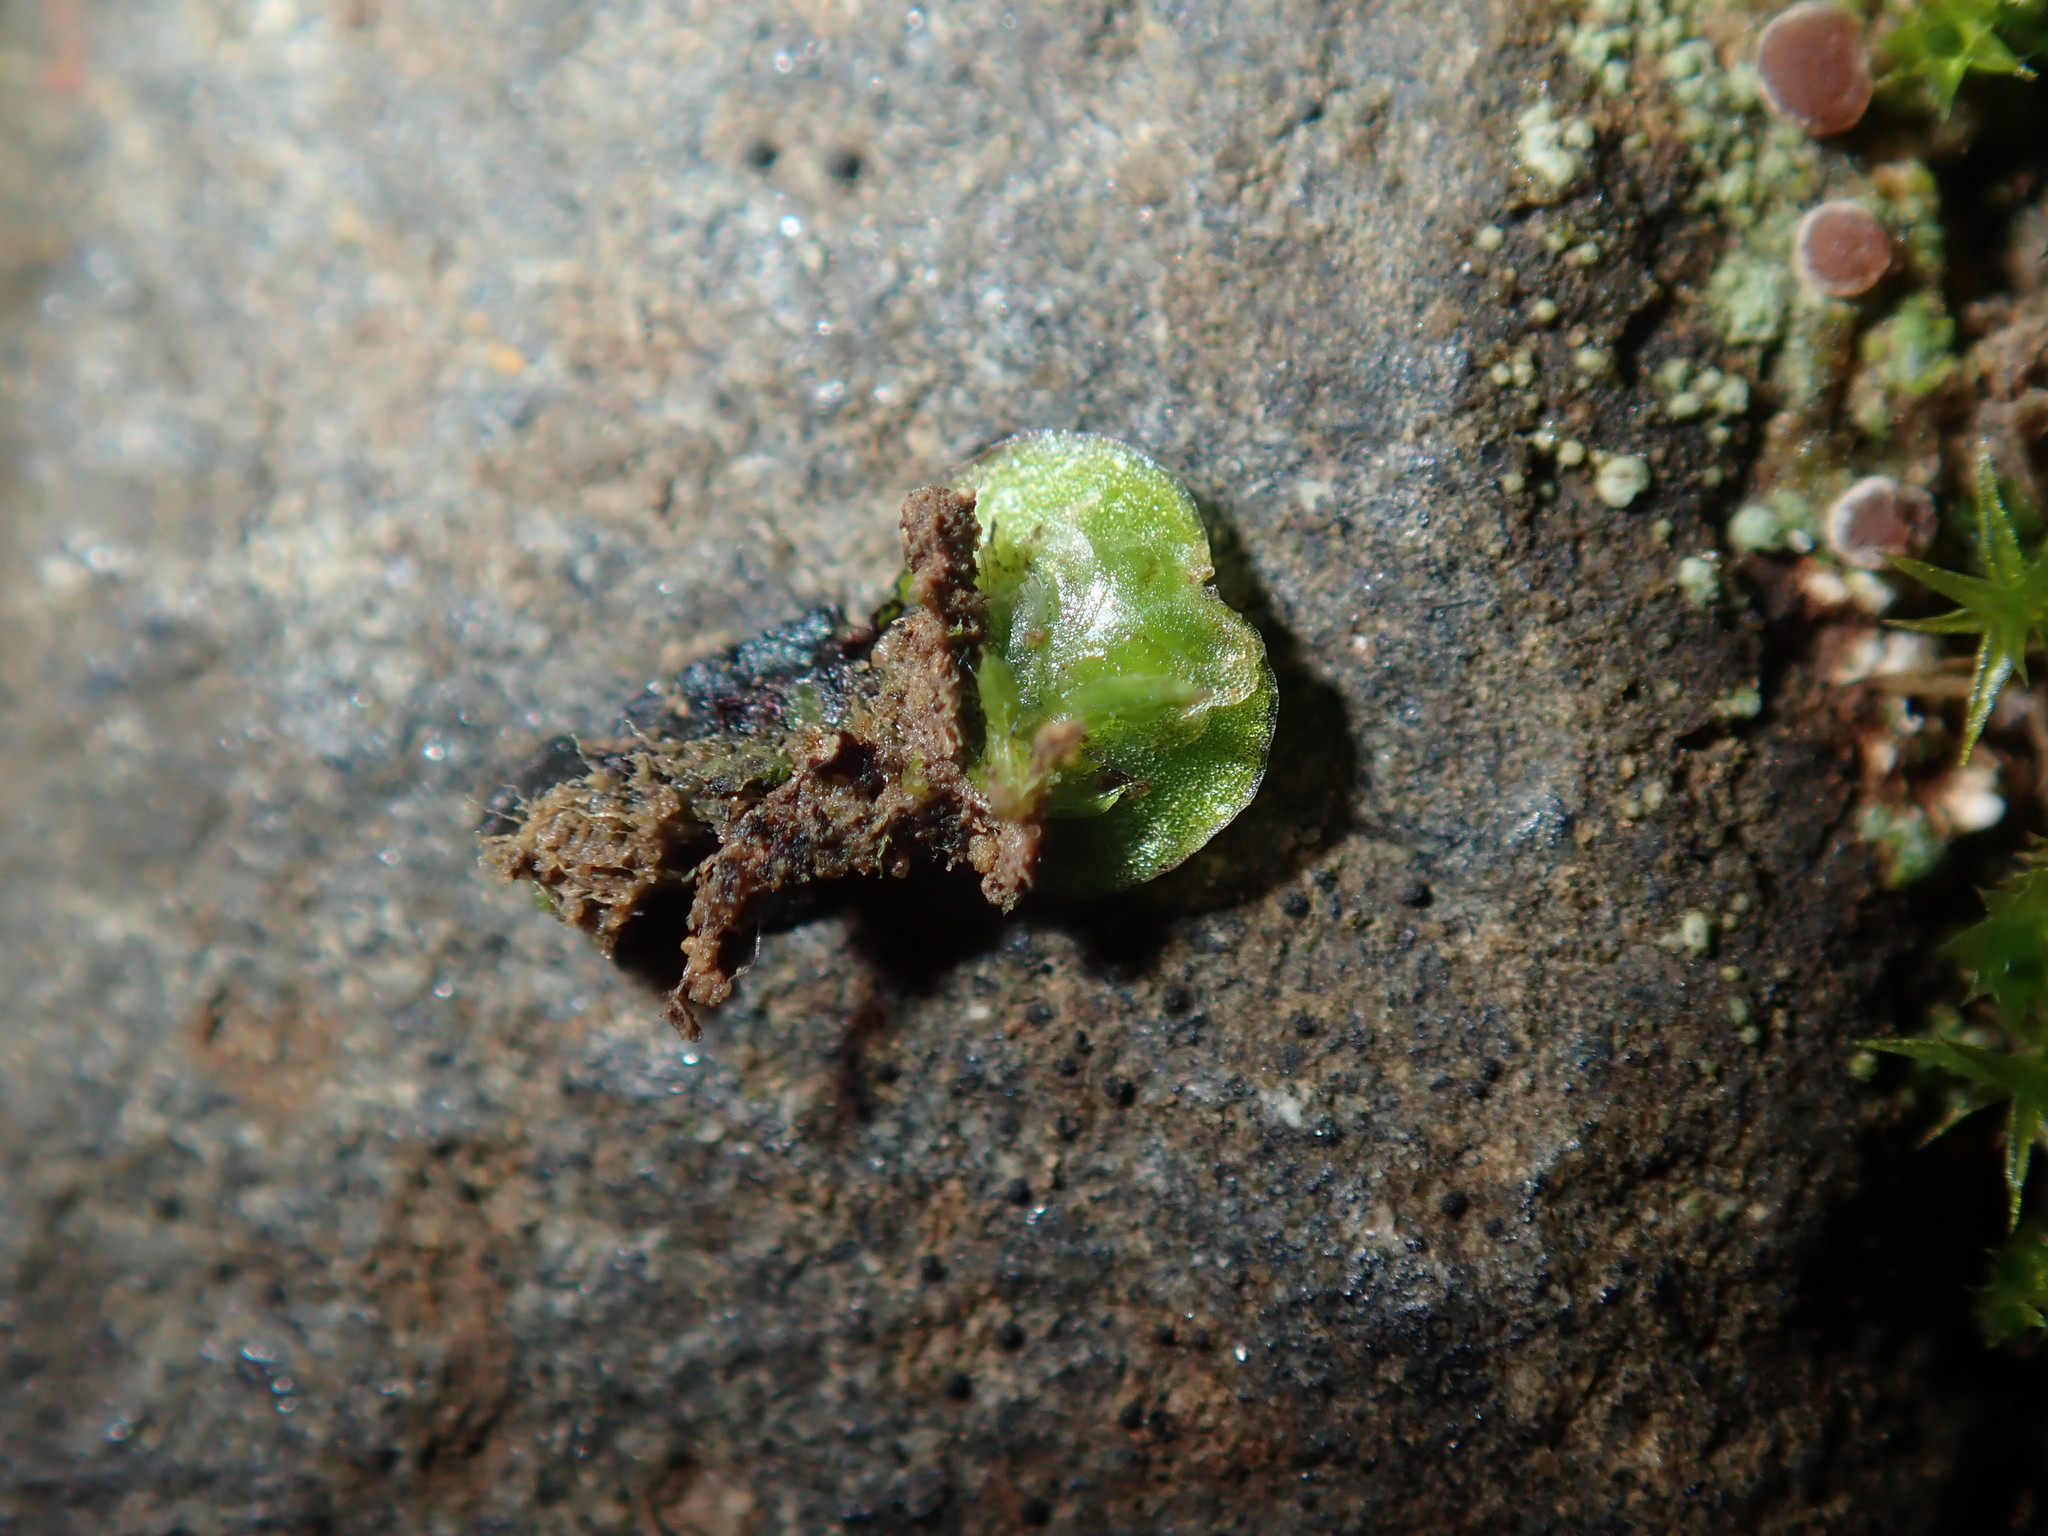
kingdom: Plantae
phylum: Marchantiophyta
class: Marchantiopsida
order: Marchantiales
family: Aytoniaceae
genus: Asterella
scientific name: Asterella drummondii
